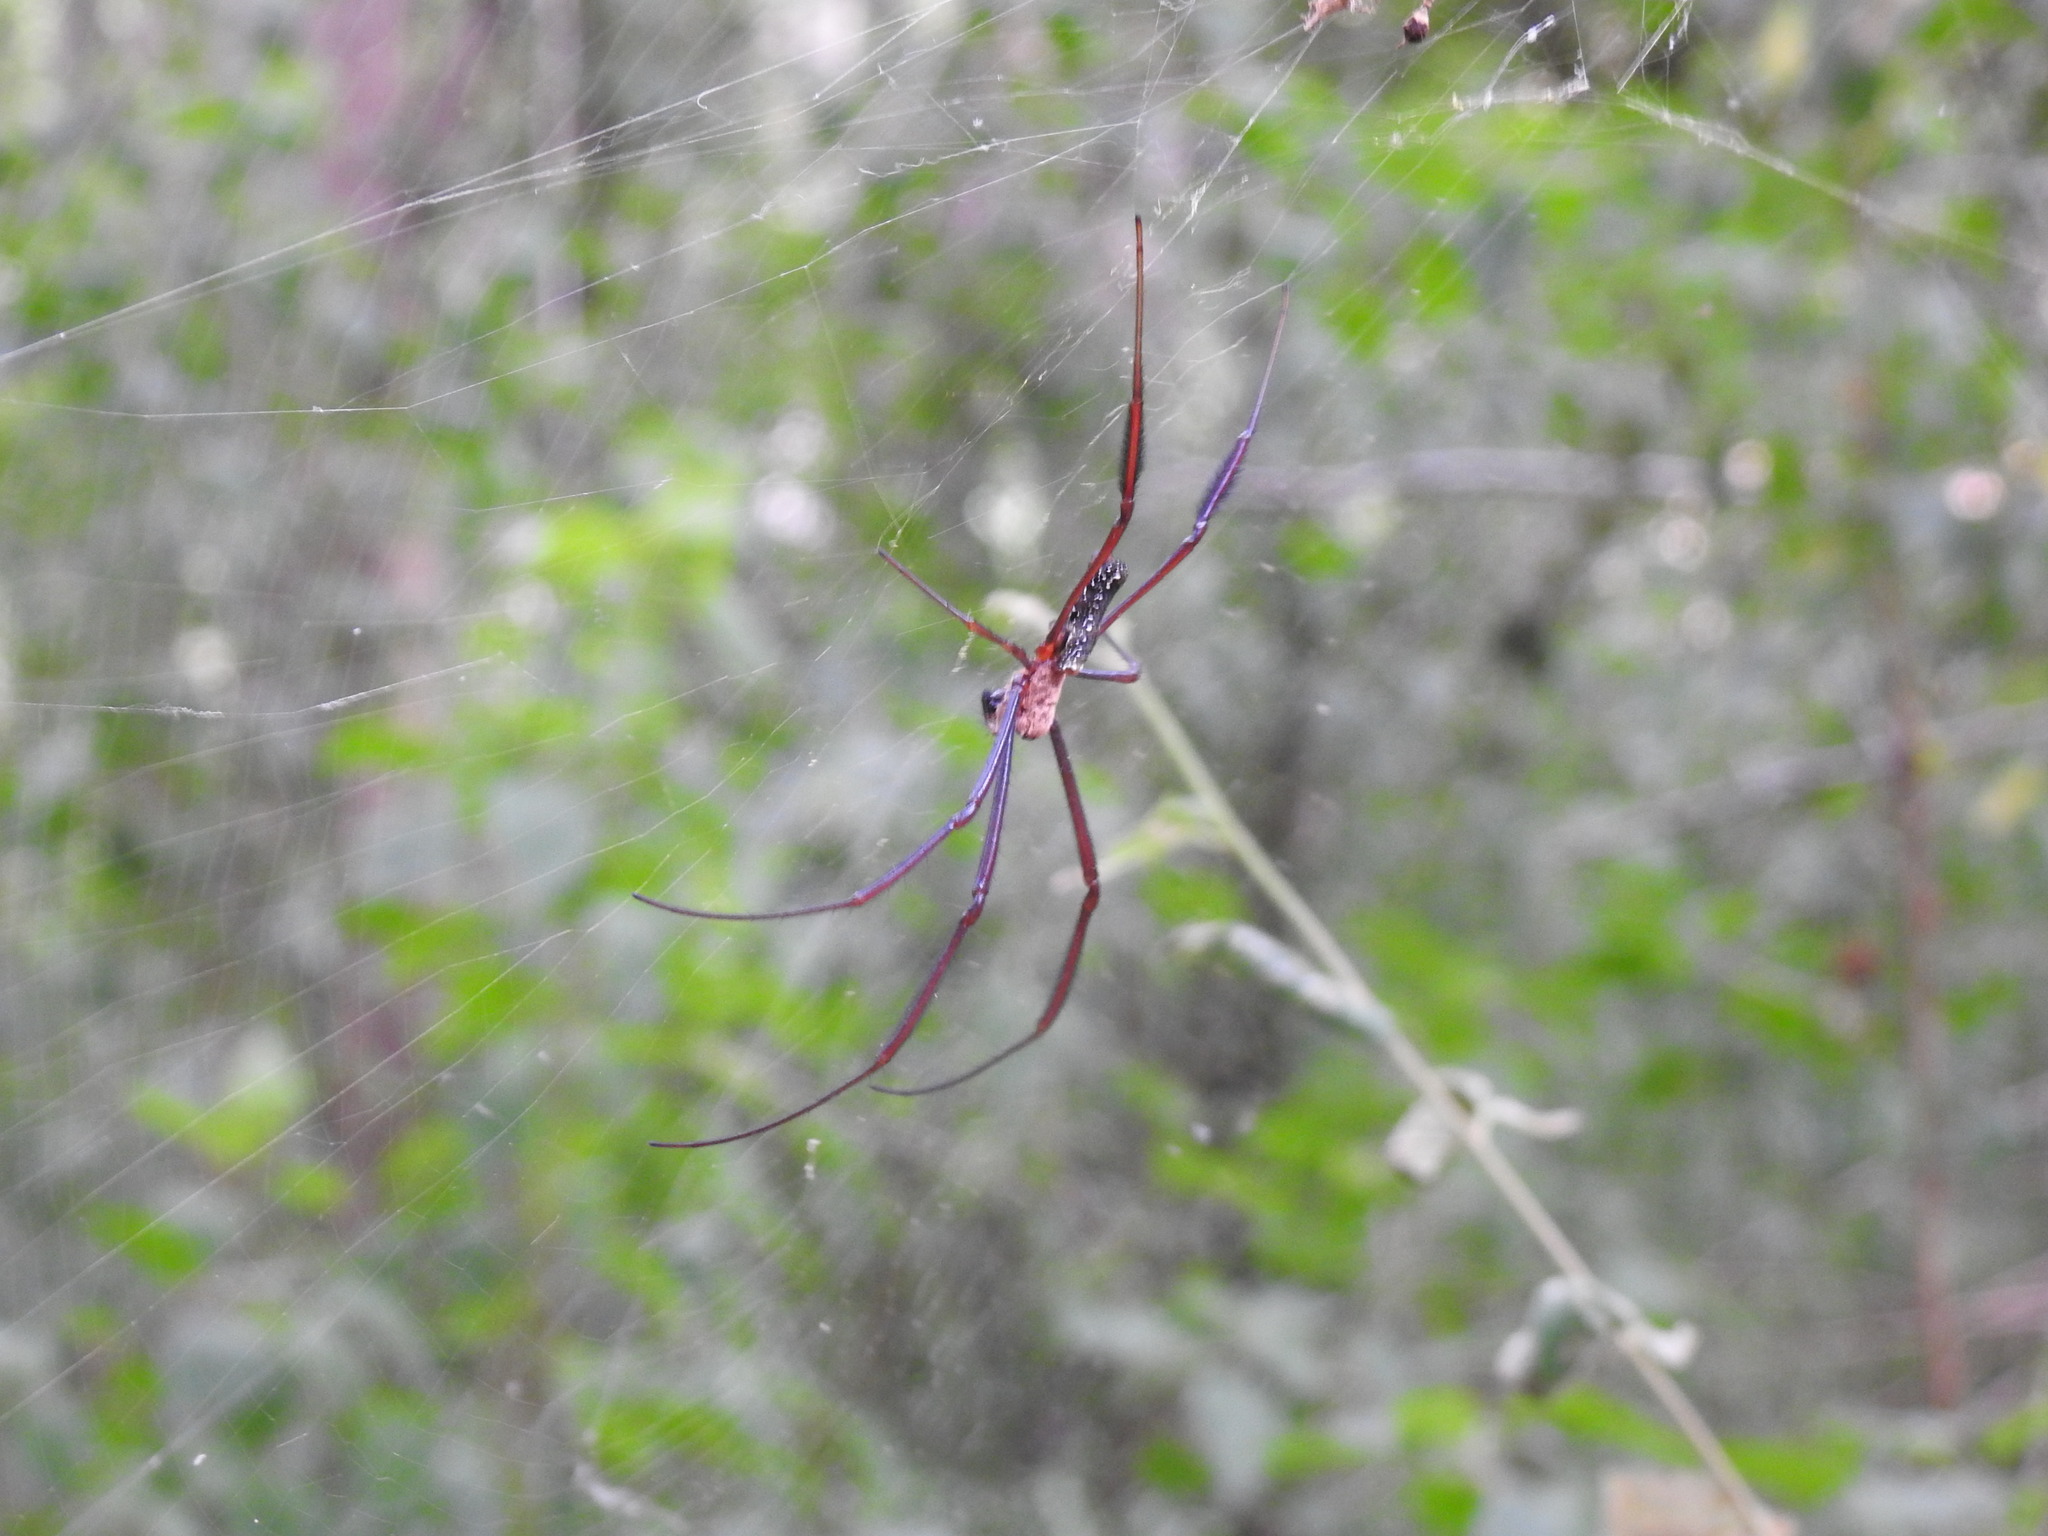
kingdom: Animalia
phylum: Arthropoda
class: Arachnida
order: Araneae
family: Araneidae
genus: Trichonephila
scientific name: Trichonephila inaurata
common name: Red-legged golden orb weaver
